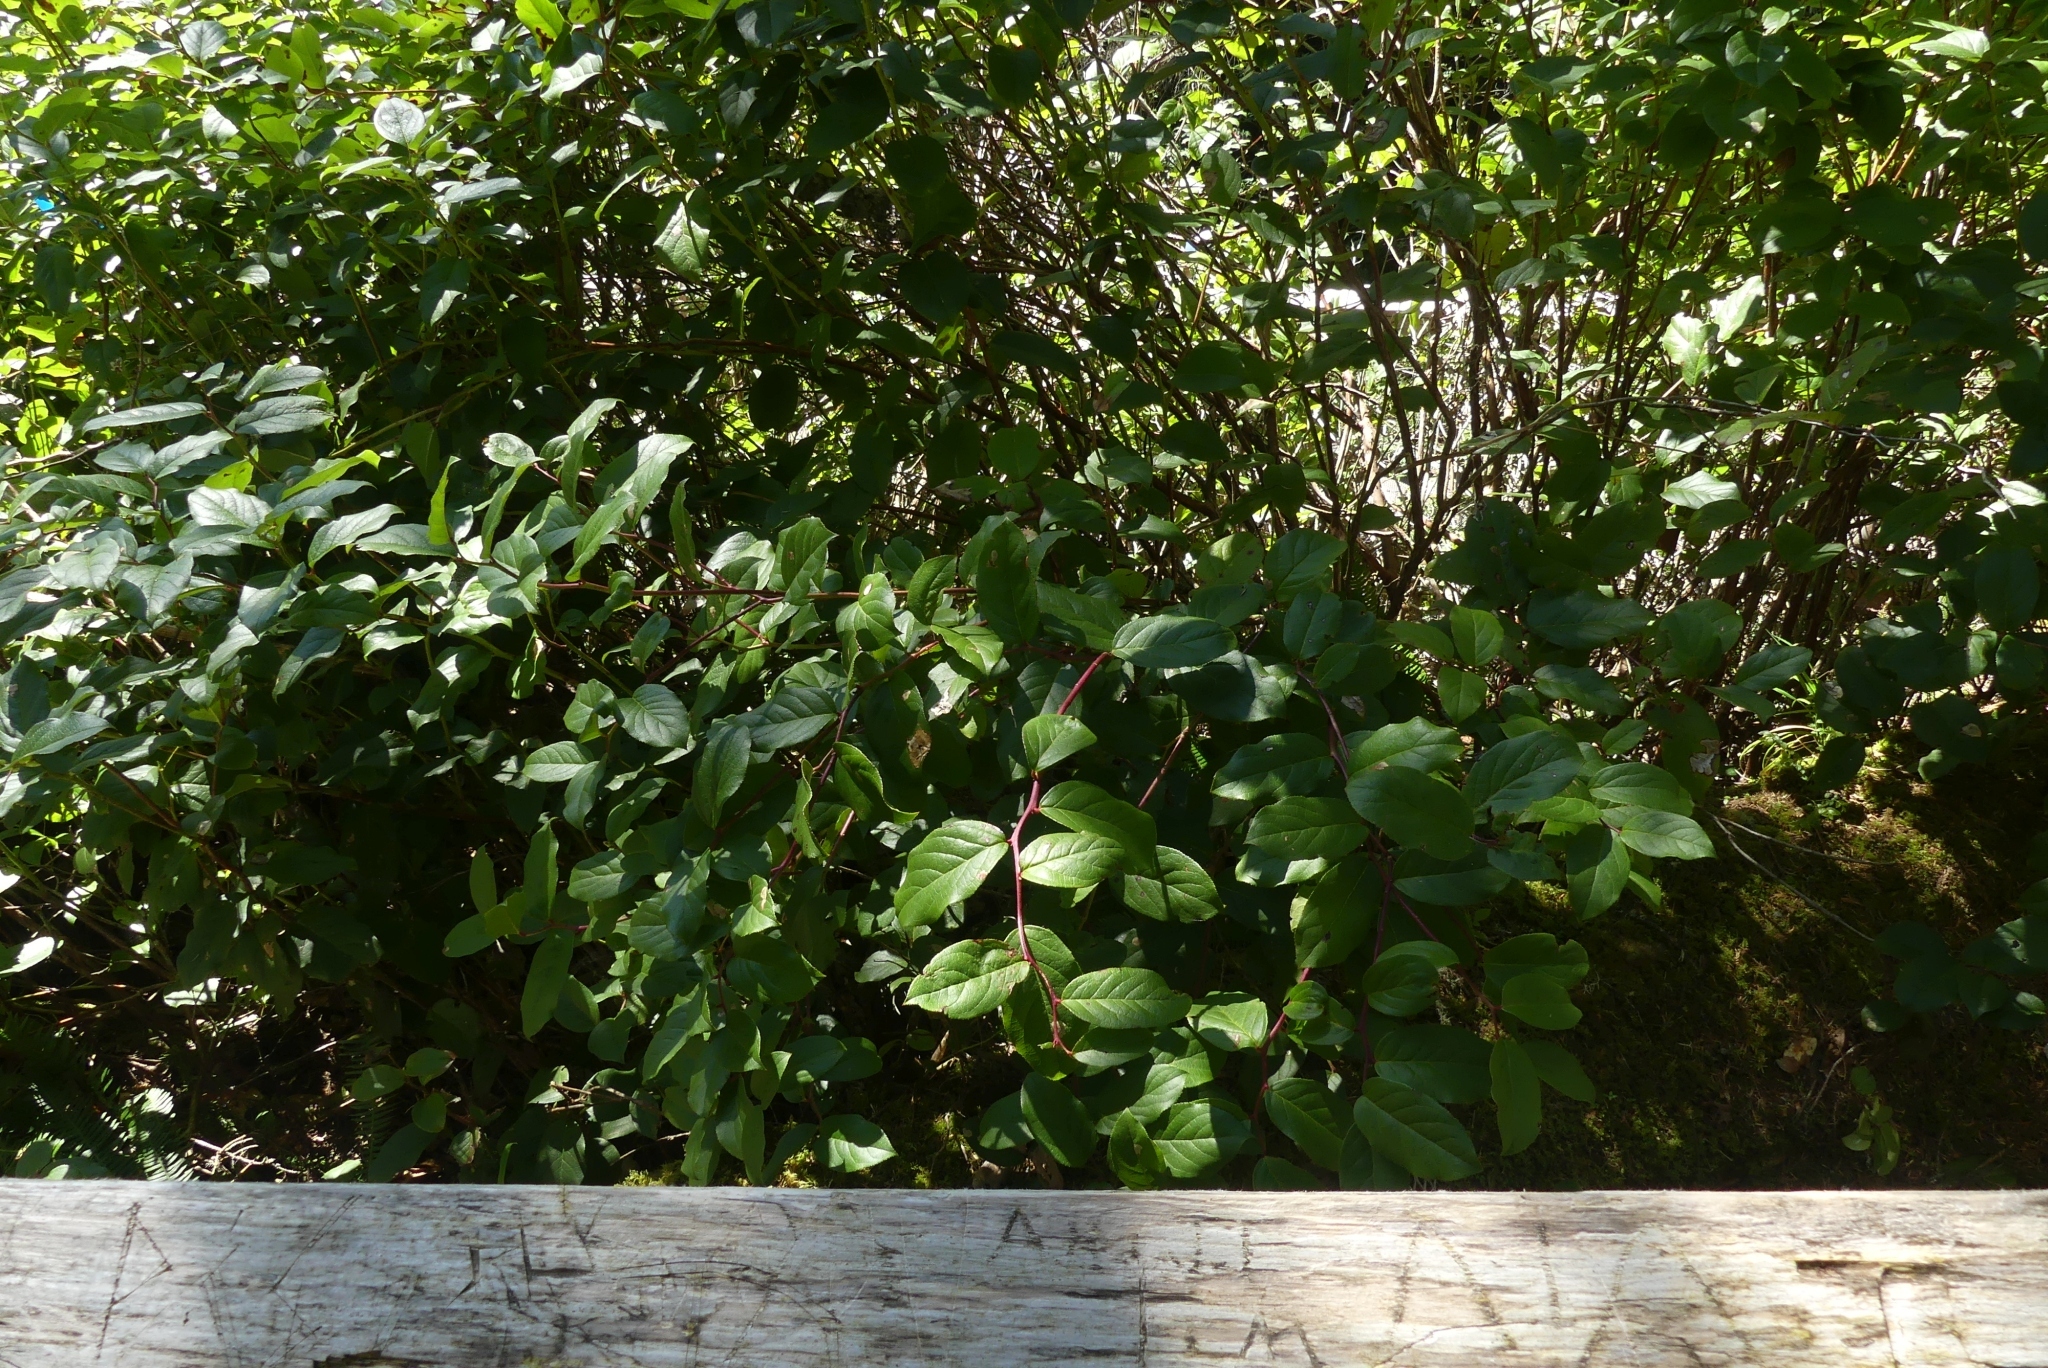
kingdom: Plantae
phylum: Tracheophyta
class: Magnoliopsida
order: Ericales
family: Ericaceae
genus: Gaultheria
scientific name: Gaultheria shallon
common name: Shallon
